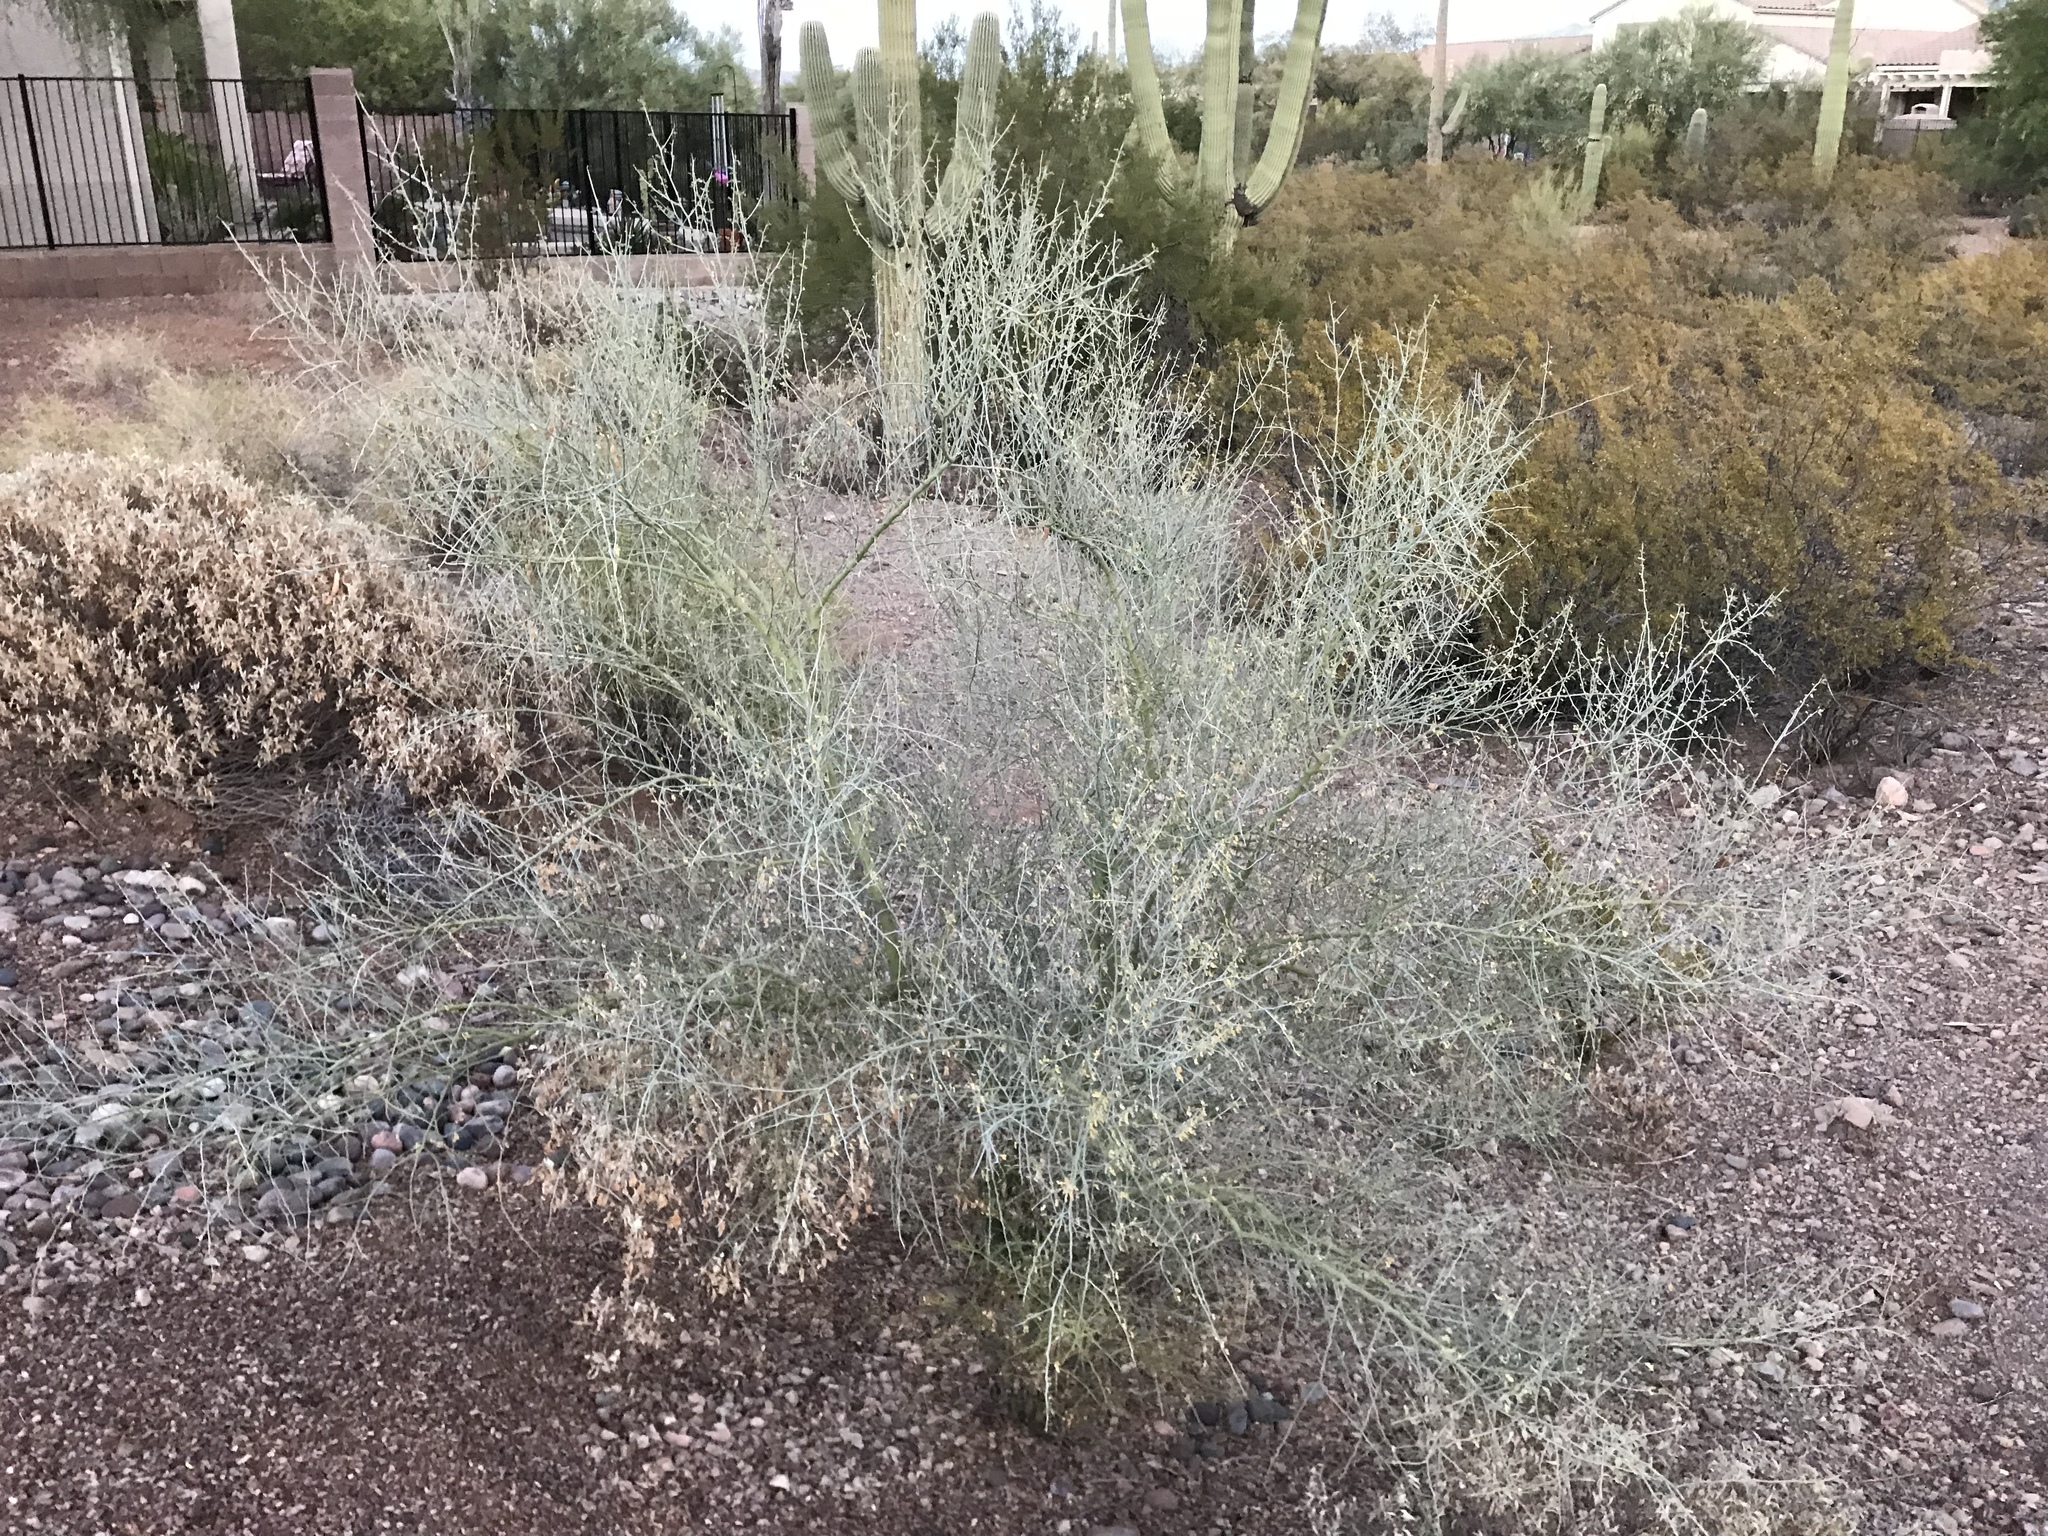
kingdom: Plantae
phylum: Tracheophyta
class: Magnoliopsida
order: Fabales
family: Fabaceae
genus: Parkinsonia
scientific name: Parkinsonia florida
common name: Blue paloverde
